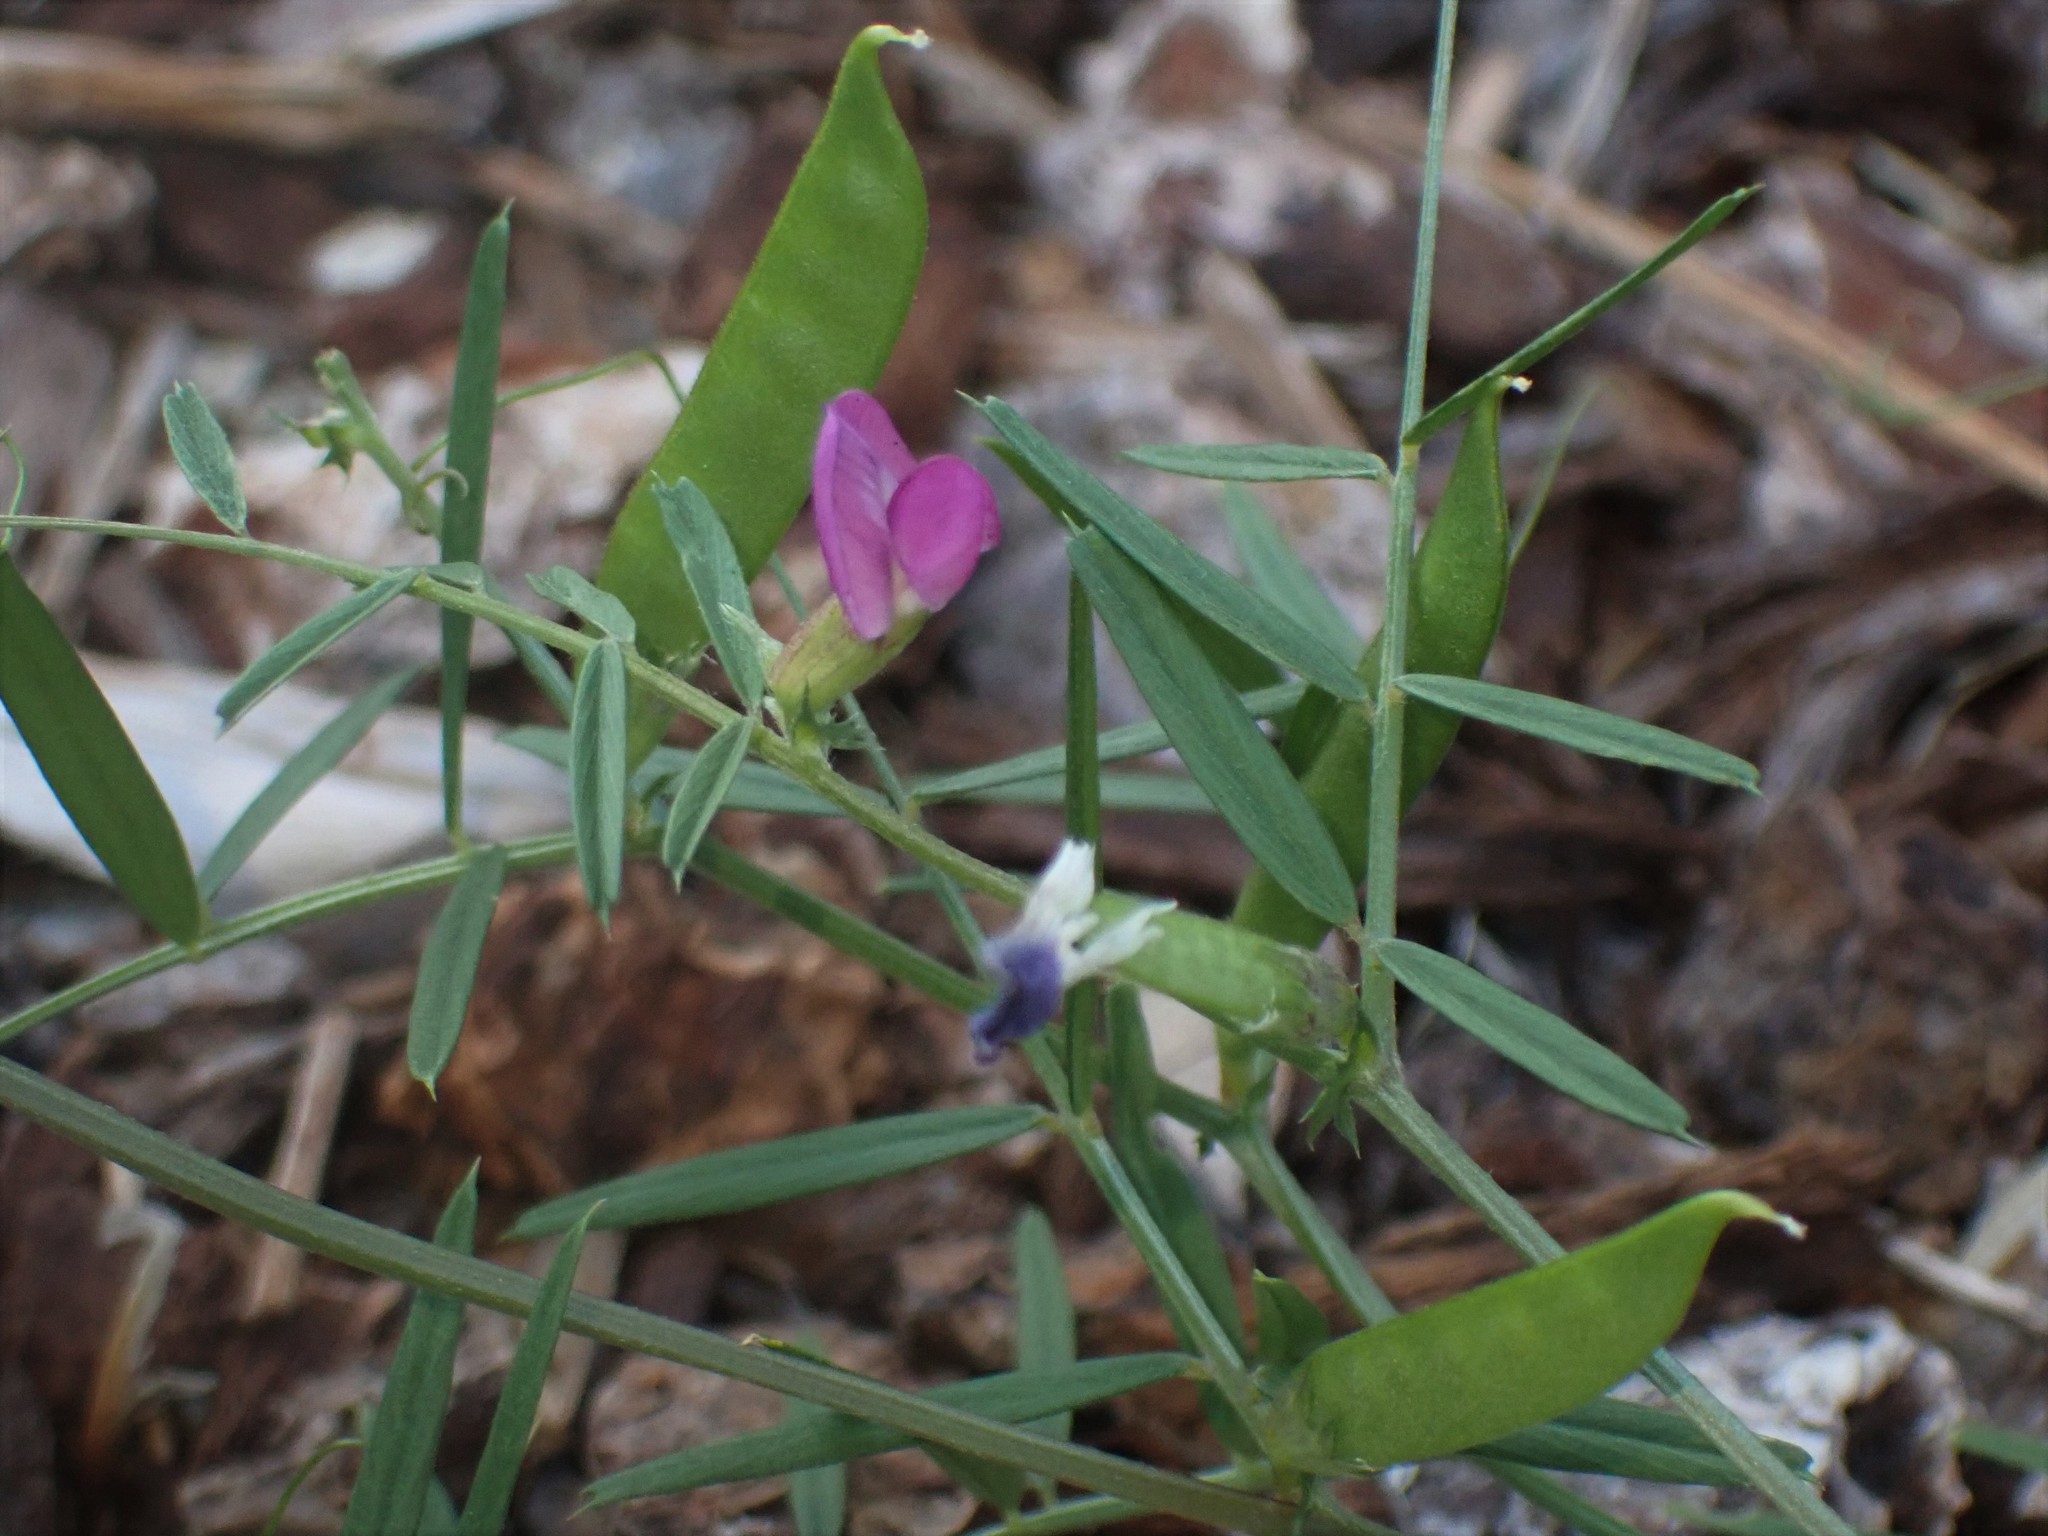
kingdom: Plantae
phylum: Tracheophyta
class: Magnoliopsida
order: Fabales
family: Fabaceae
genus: Vicia
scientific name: Vicia sativa
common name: Garden vetch
